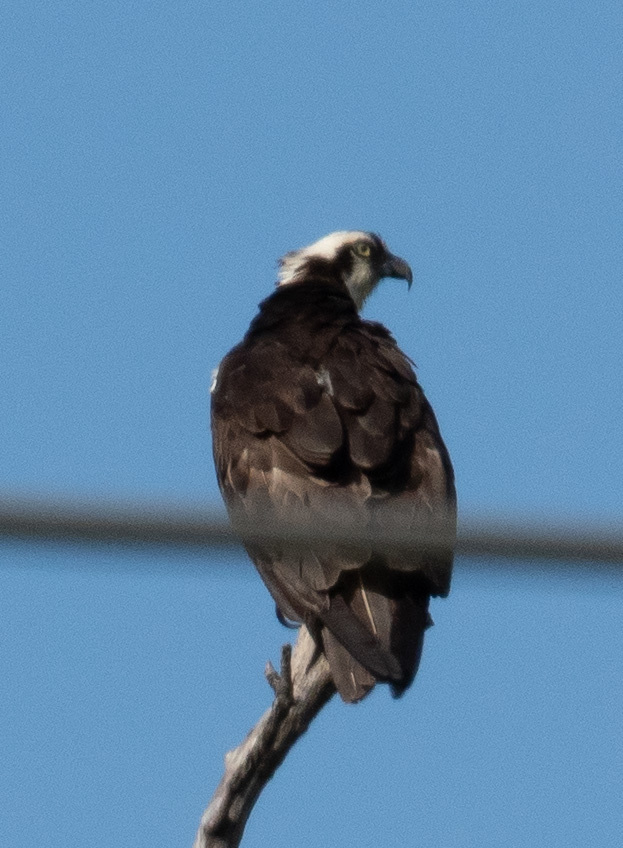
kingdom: Animalia
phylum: Chordata
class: Aves
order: Accipitriformes
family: Pandionidae
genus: Pandion
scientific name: Pandion haliaetus
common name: Osprey
